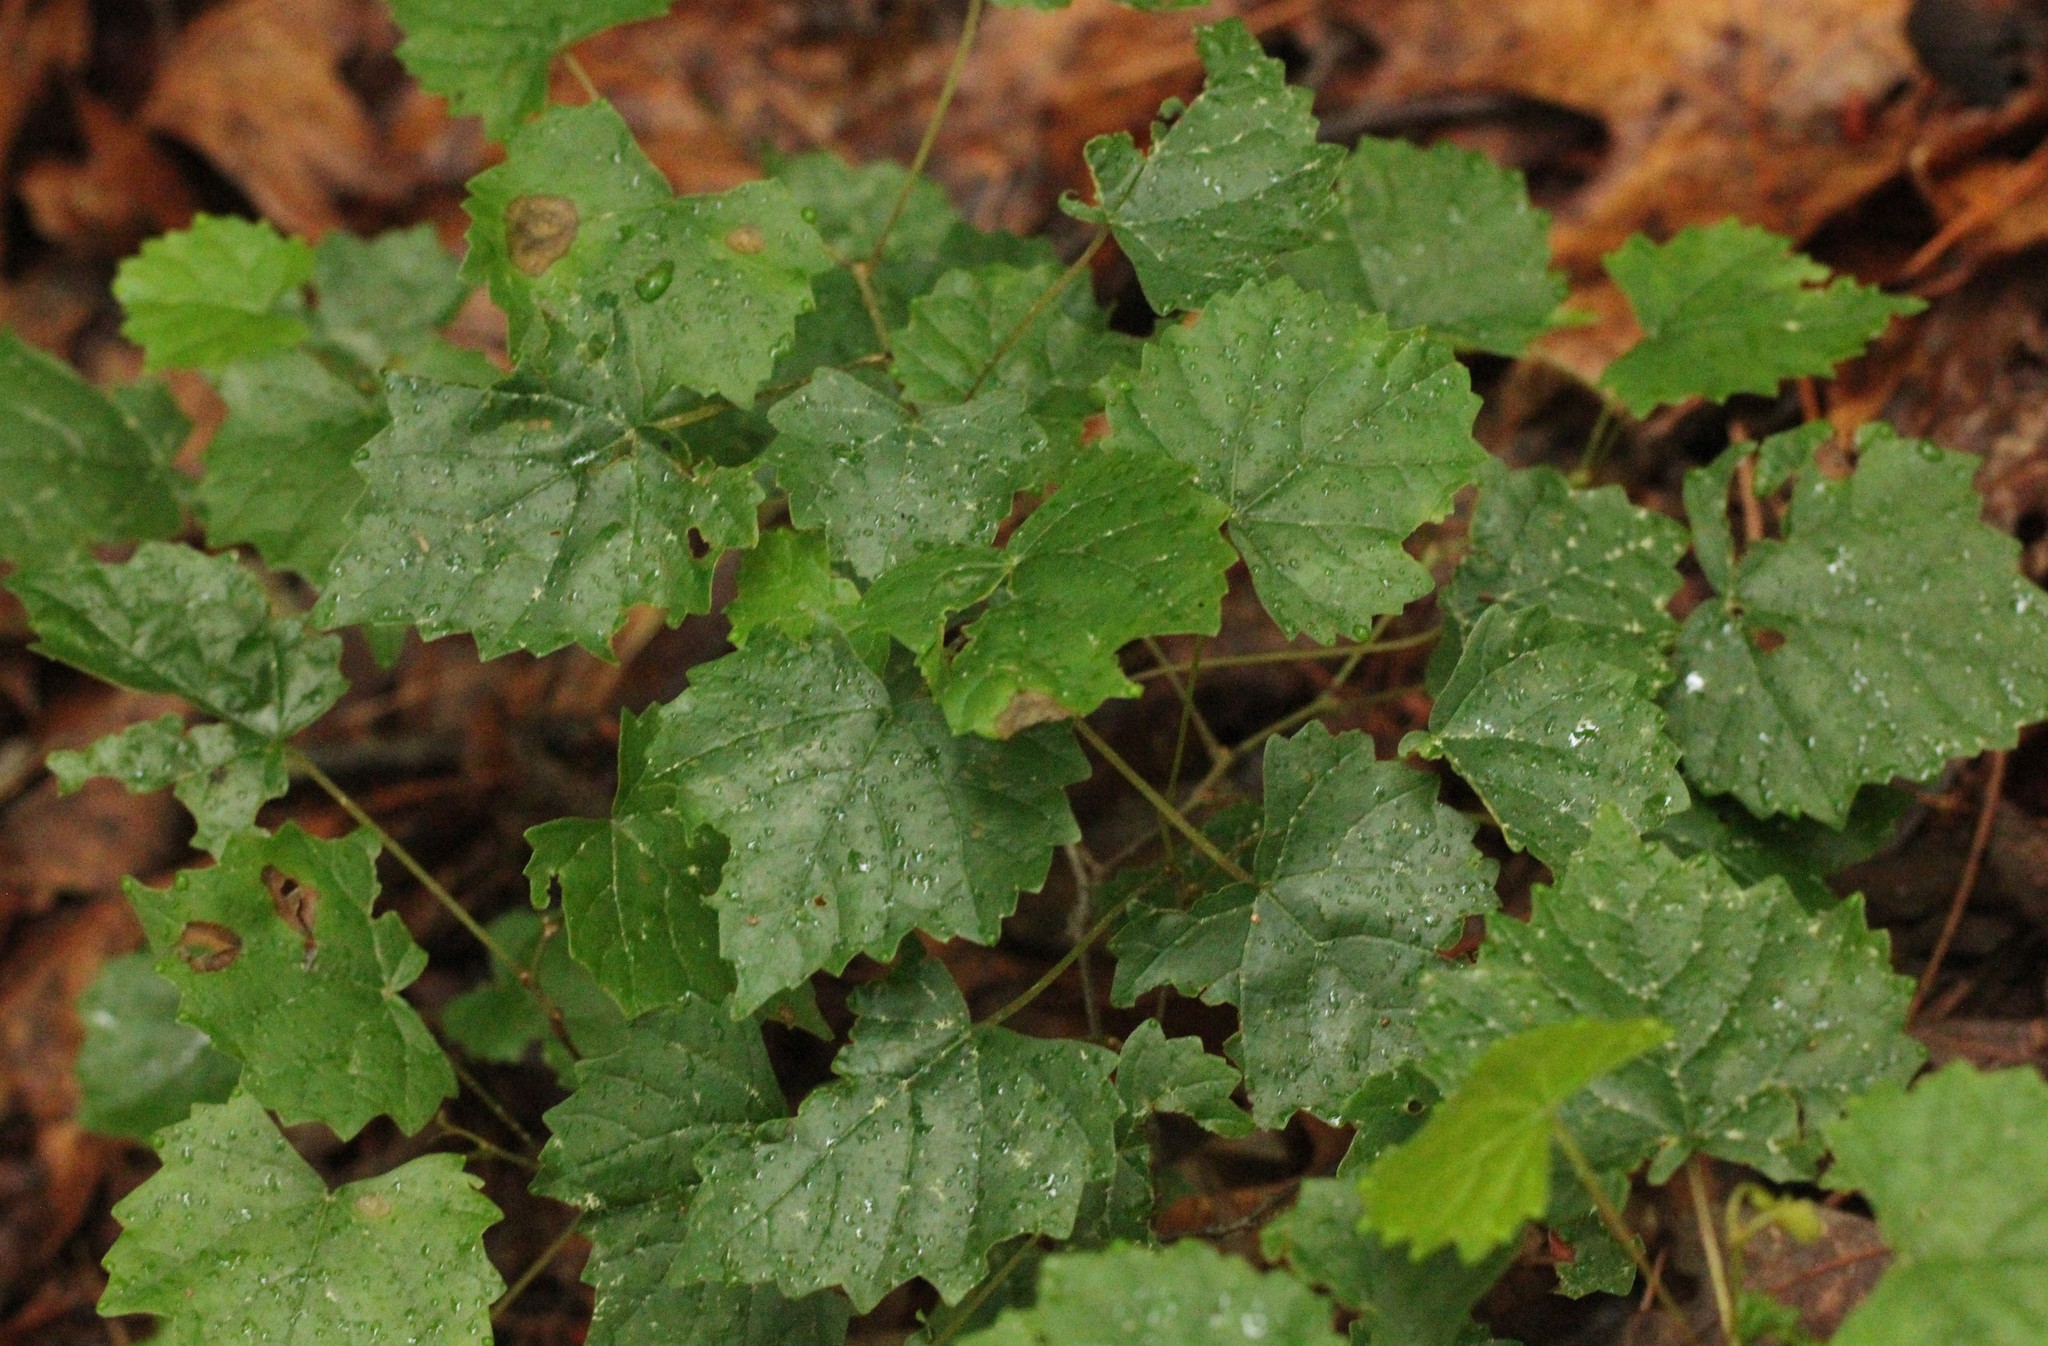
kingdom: Plantae
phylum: Tracheophyta
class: Magnoliopsida
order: Vitales
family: Vitaceae
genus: Vitis
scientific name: Vitis rotundifolia
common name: Muscadine grape
